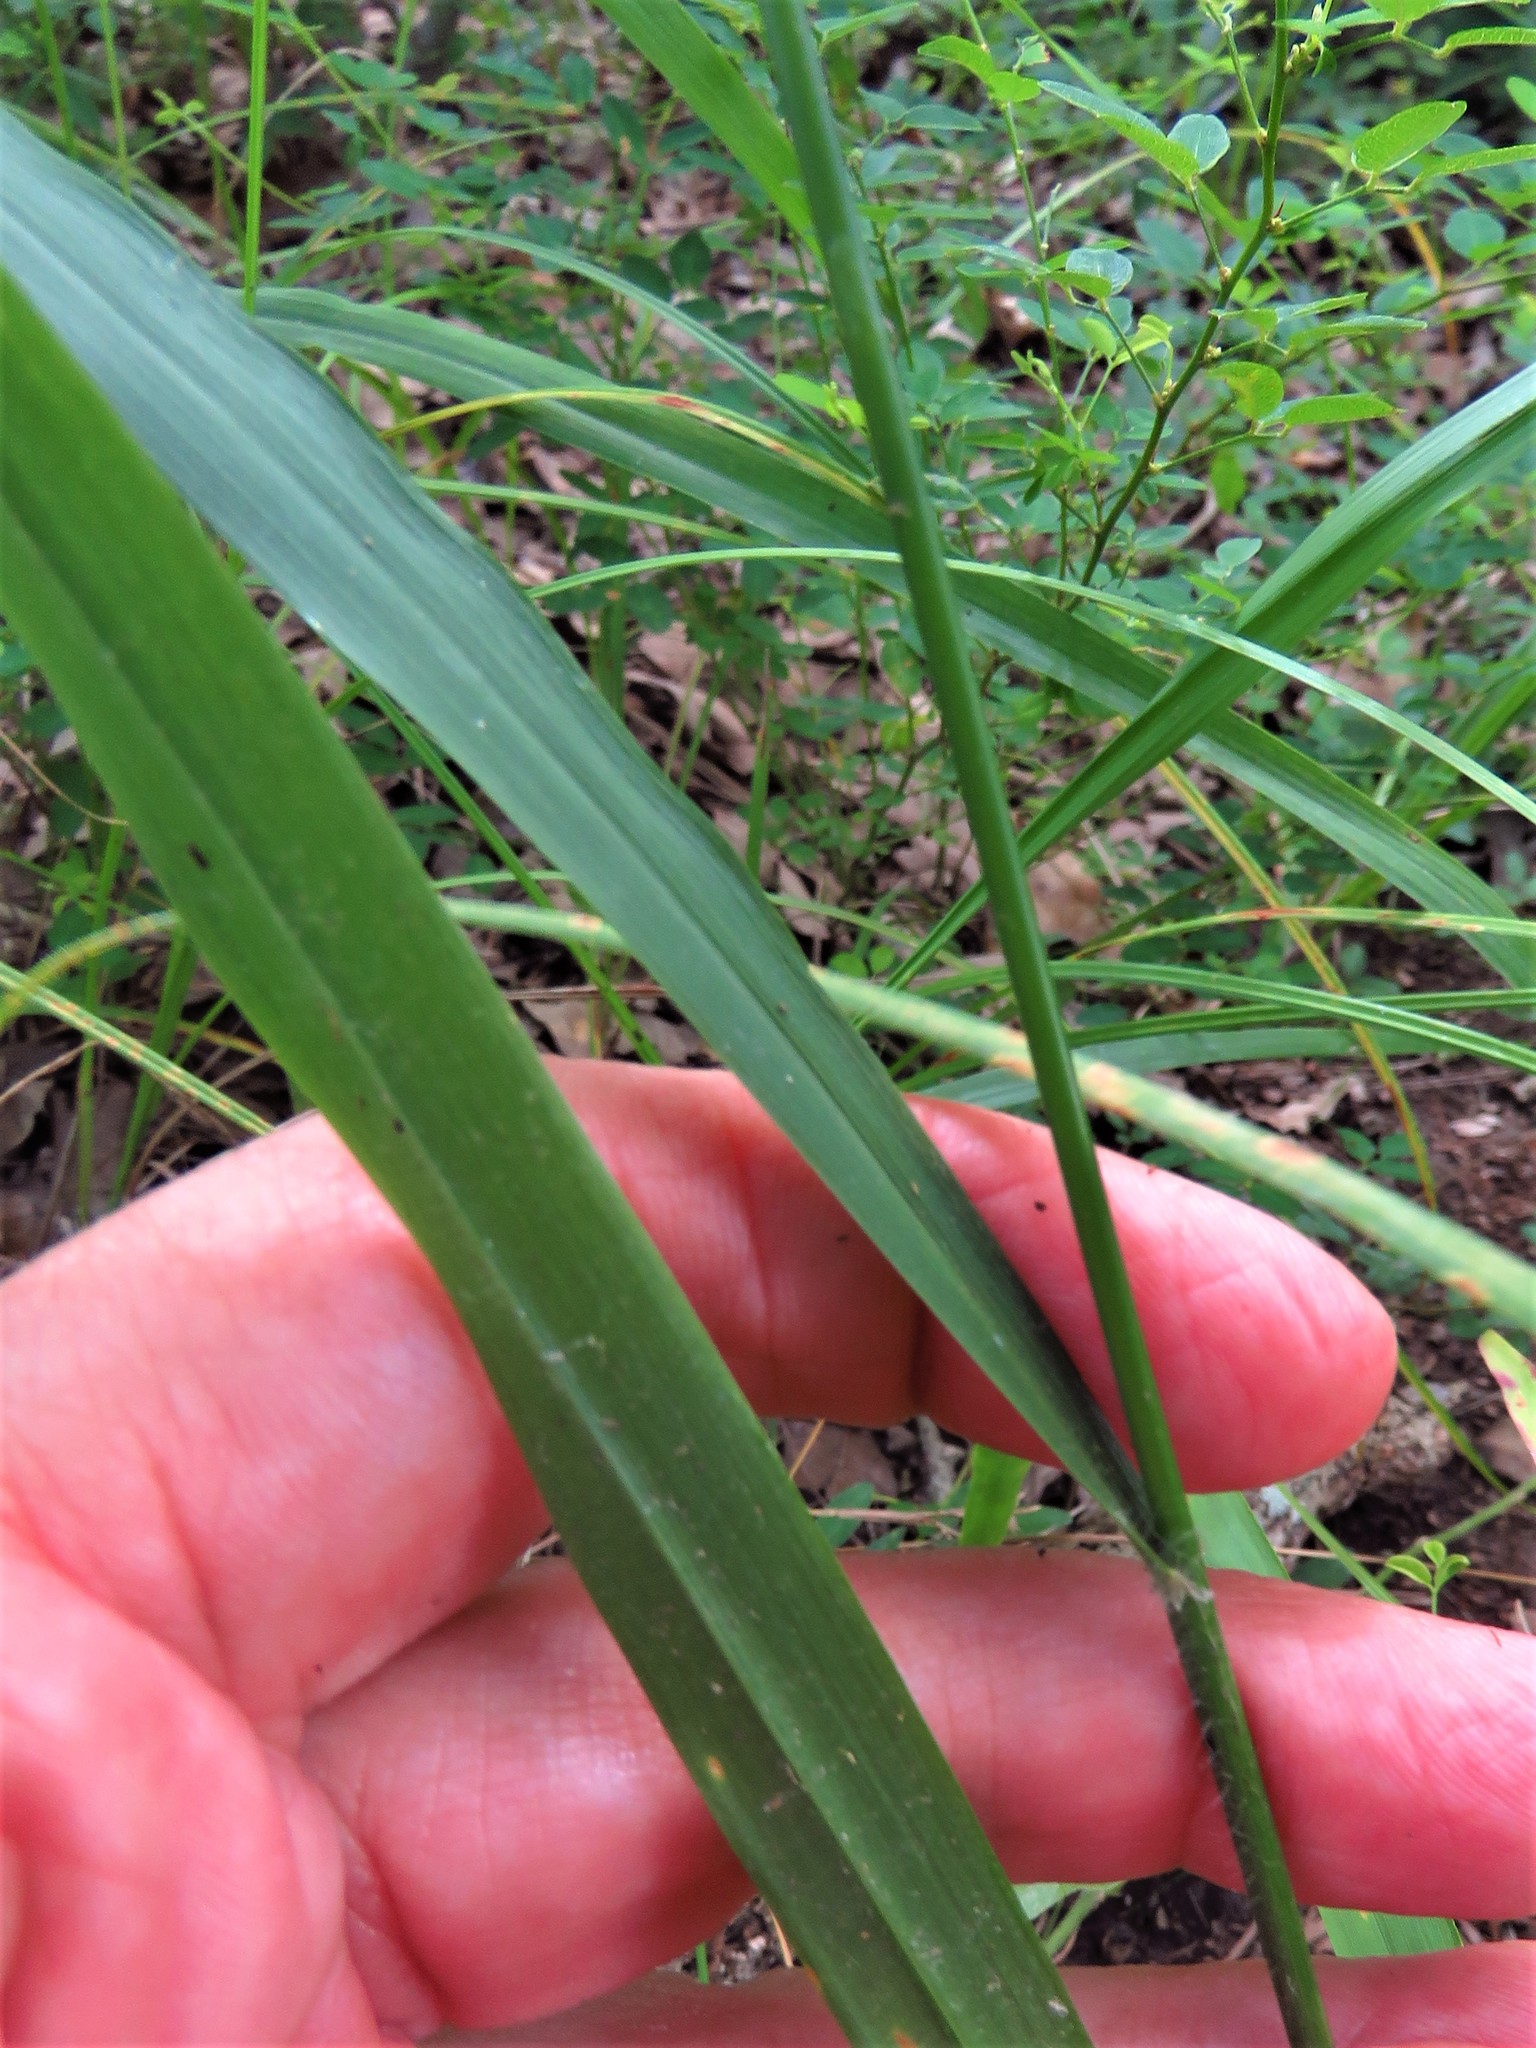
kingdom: Plantae
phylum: Tracheophyta
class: Liliopsida
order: Poales
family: Poaceae
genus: Chasmanthium
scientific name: Chasmanthium laxum
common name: Slender chasmanthium
